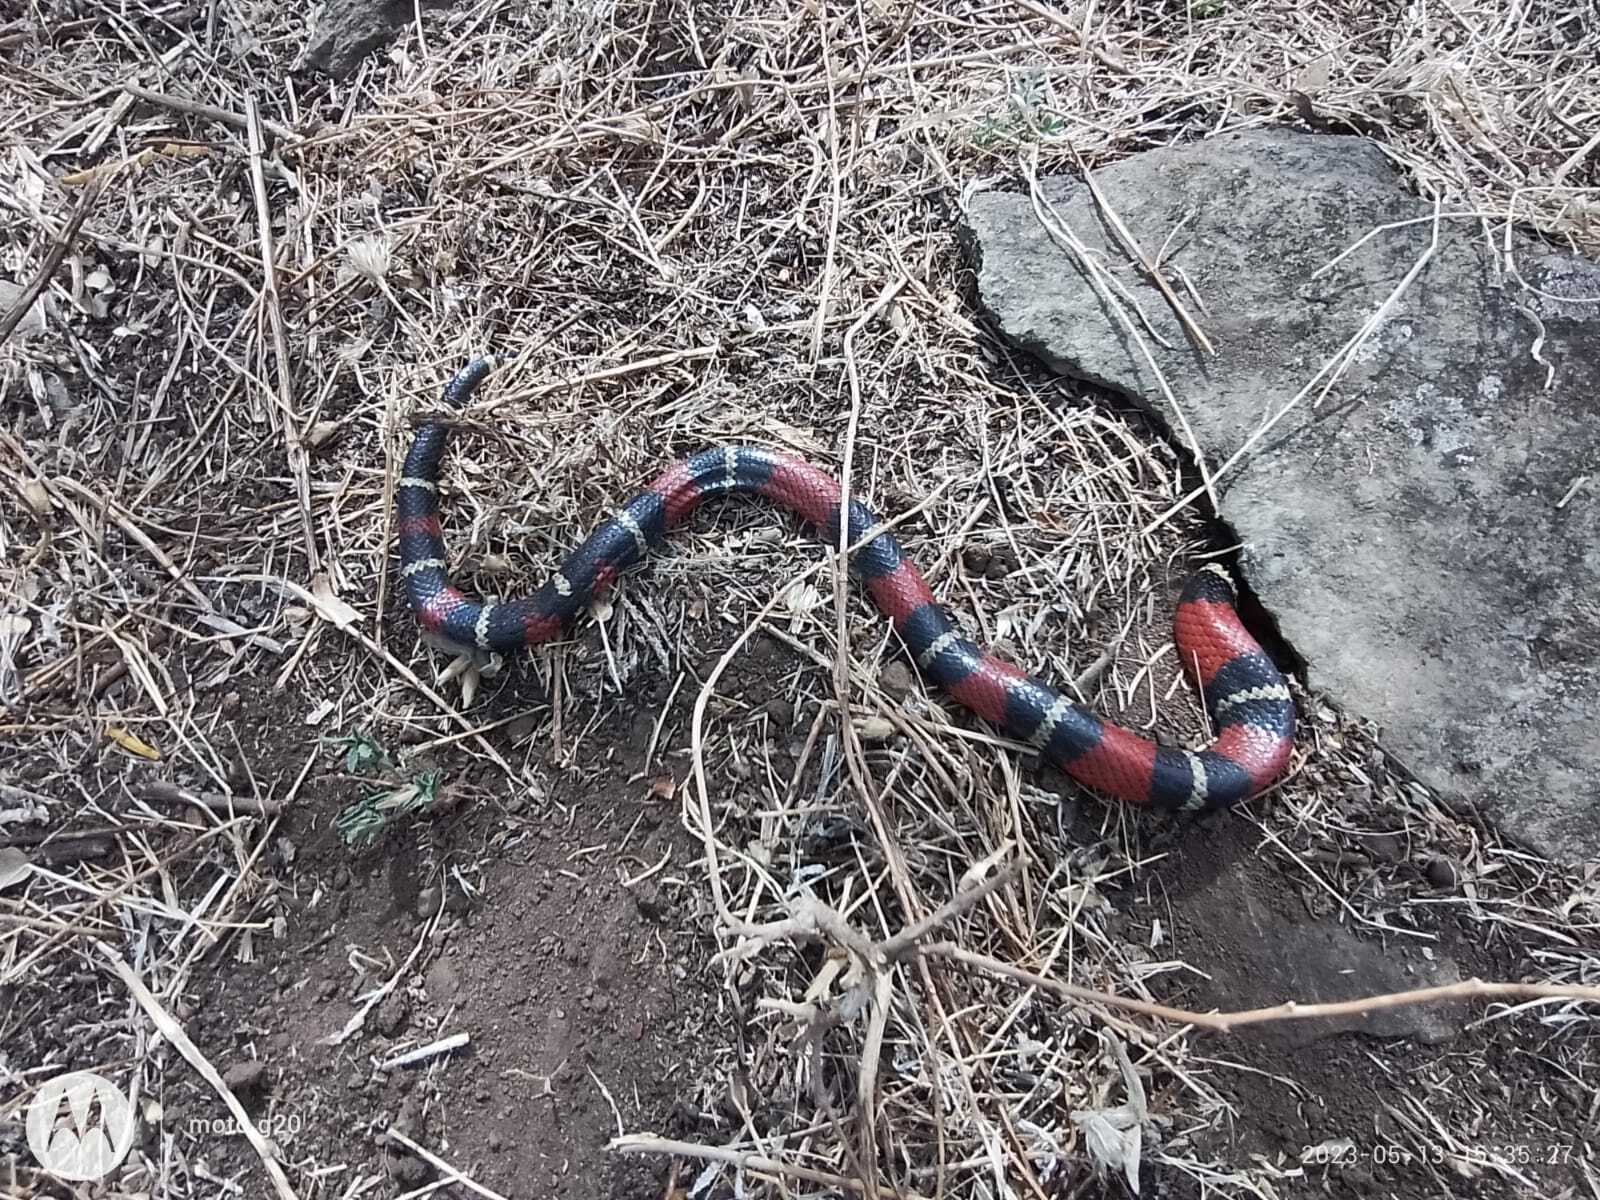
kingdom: Animalia
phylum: Chordata
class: Squamata
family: Colubridae
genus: Lampropeltis
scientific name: Lampropeltis polyzona
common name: Atlantic central american milksnake
